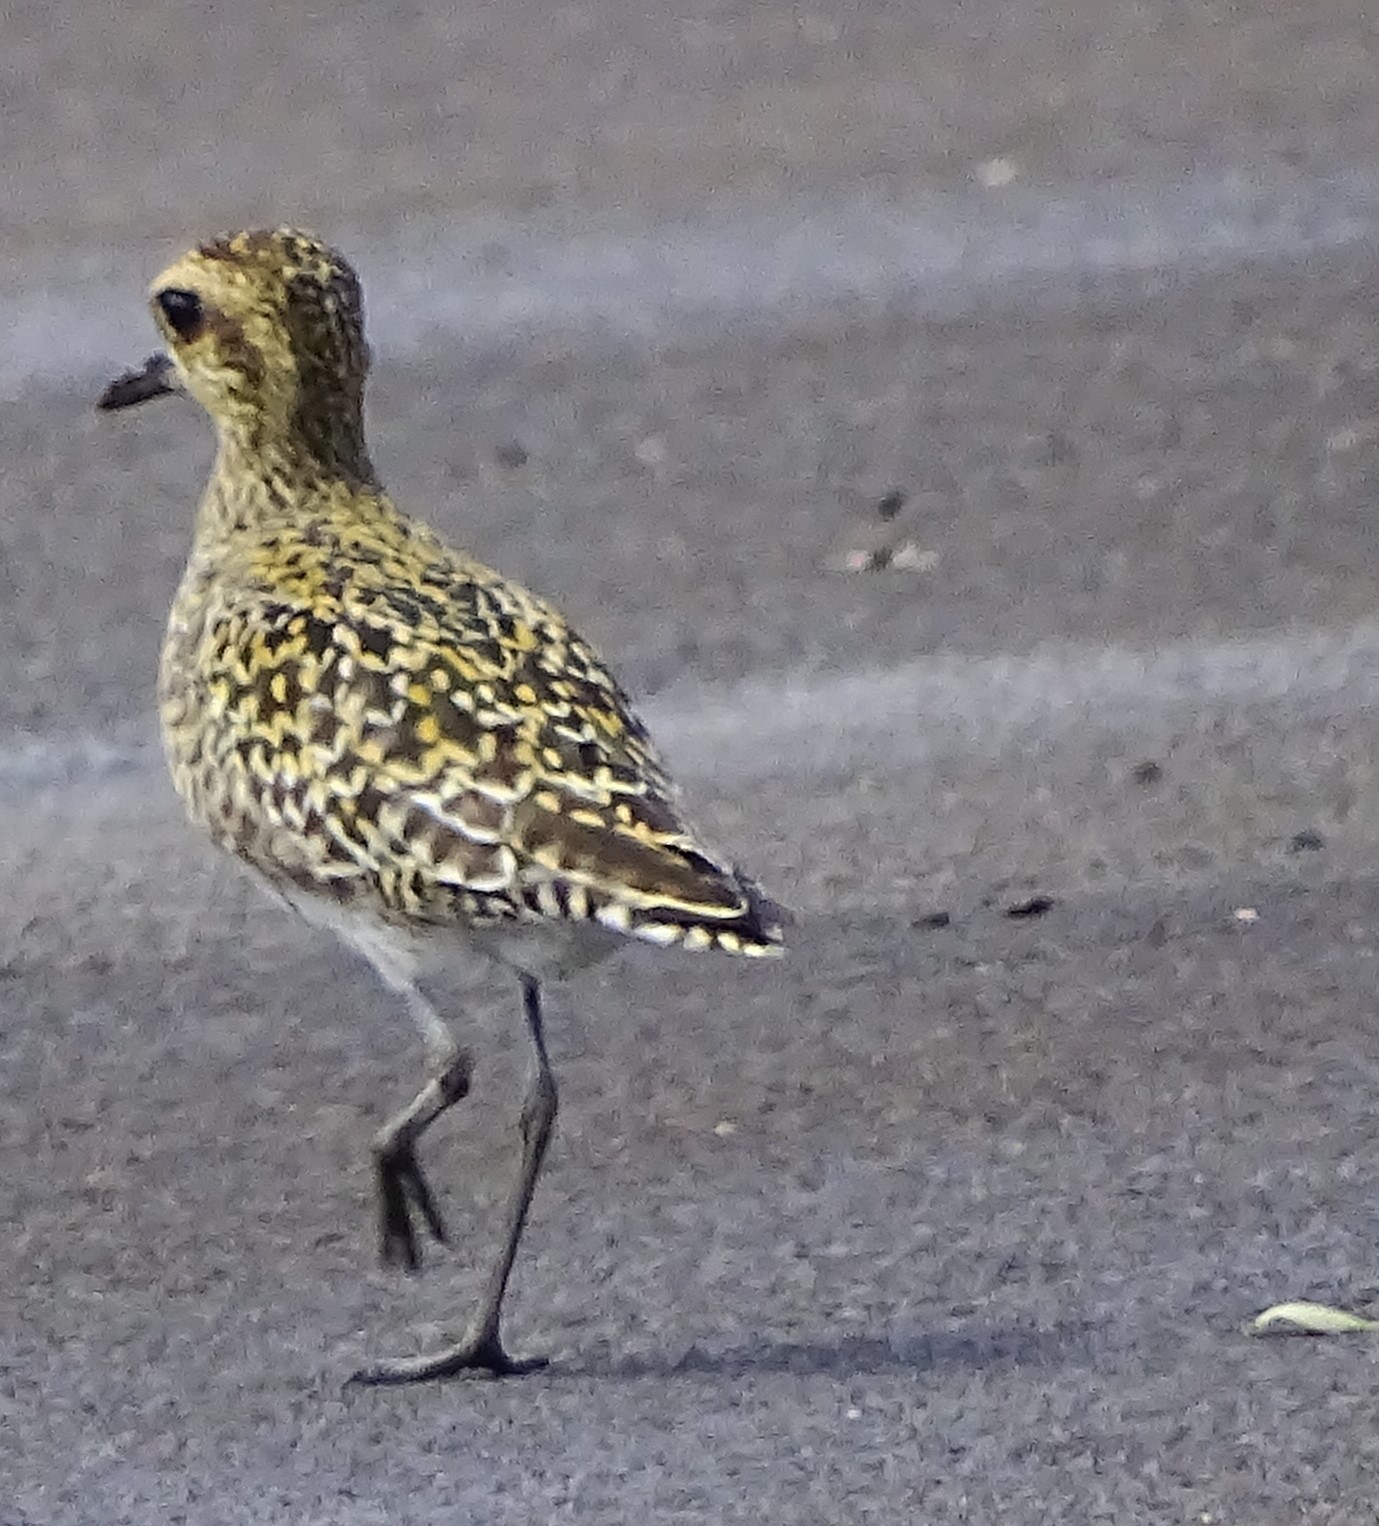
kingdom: Animalia
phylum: Chordata
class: Aves
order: Charadriiformes
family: Charadriidae
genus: Pluvialis
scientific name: Pluvialis fulva
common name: Pacific golden plover
